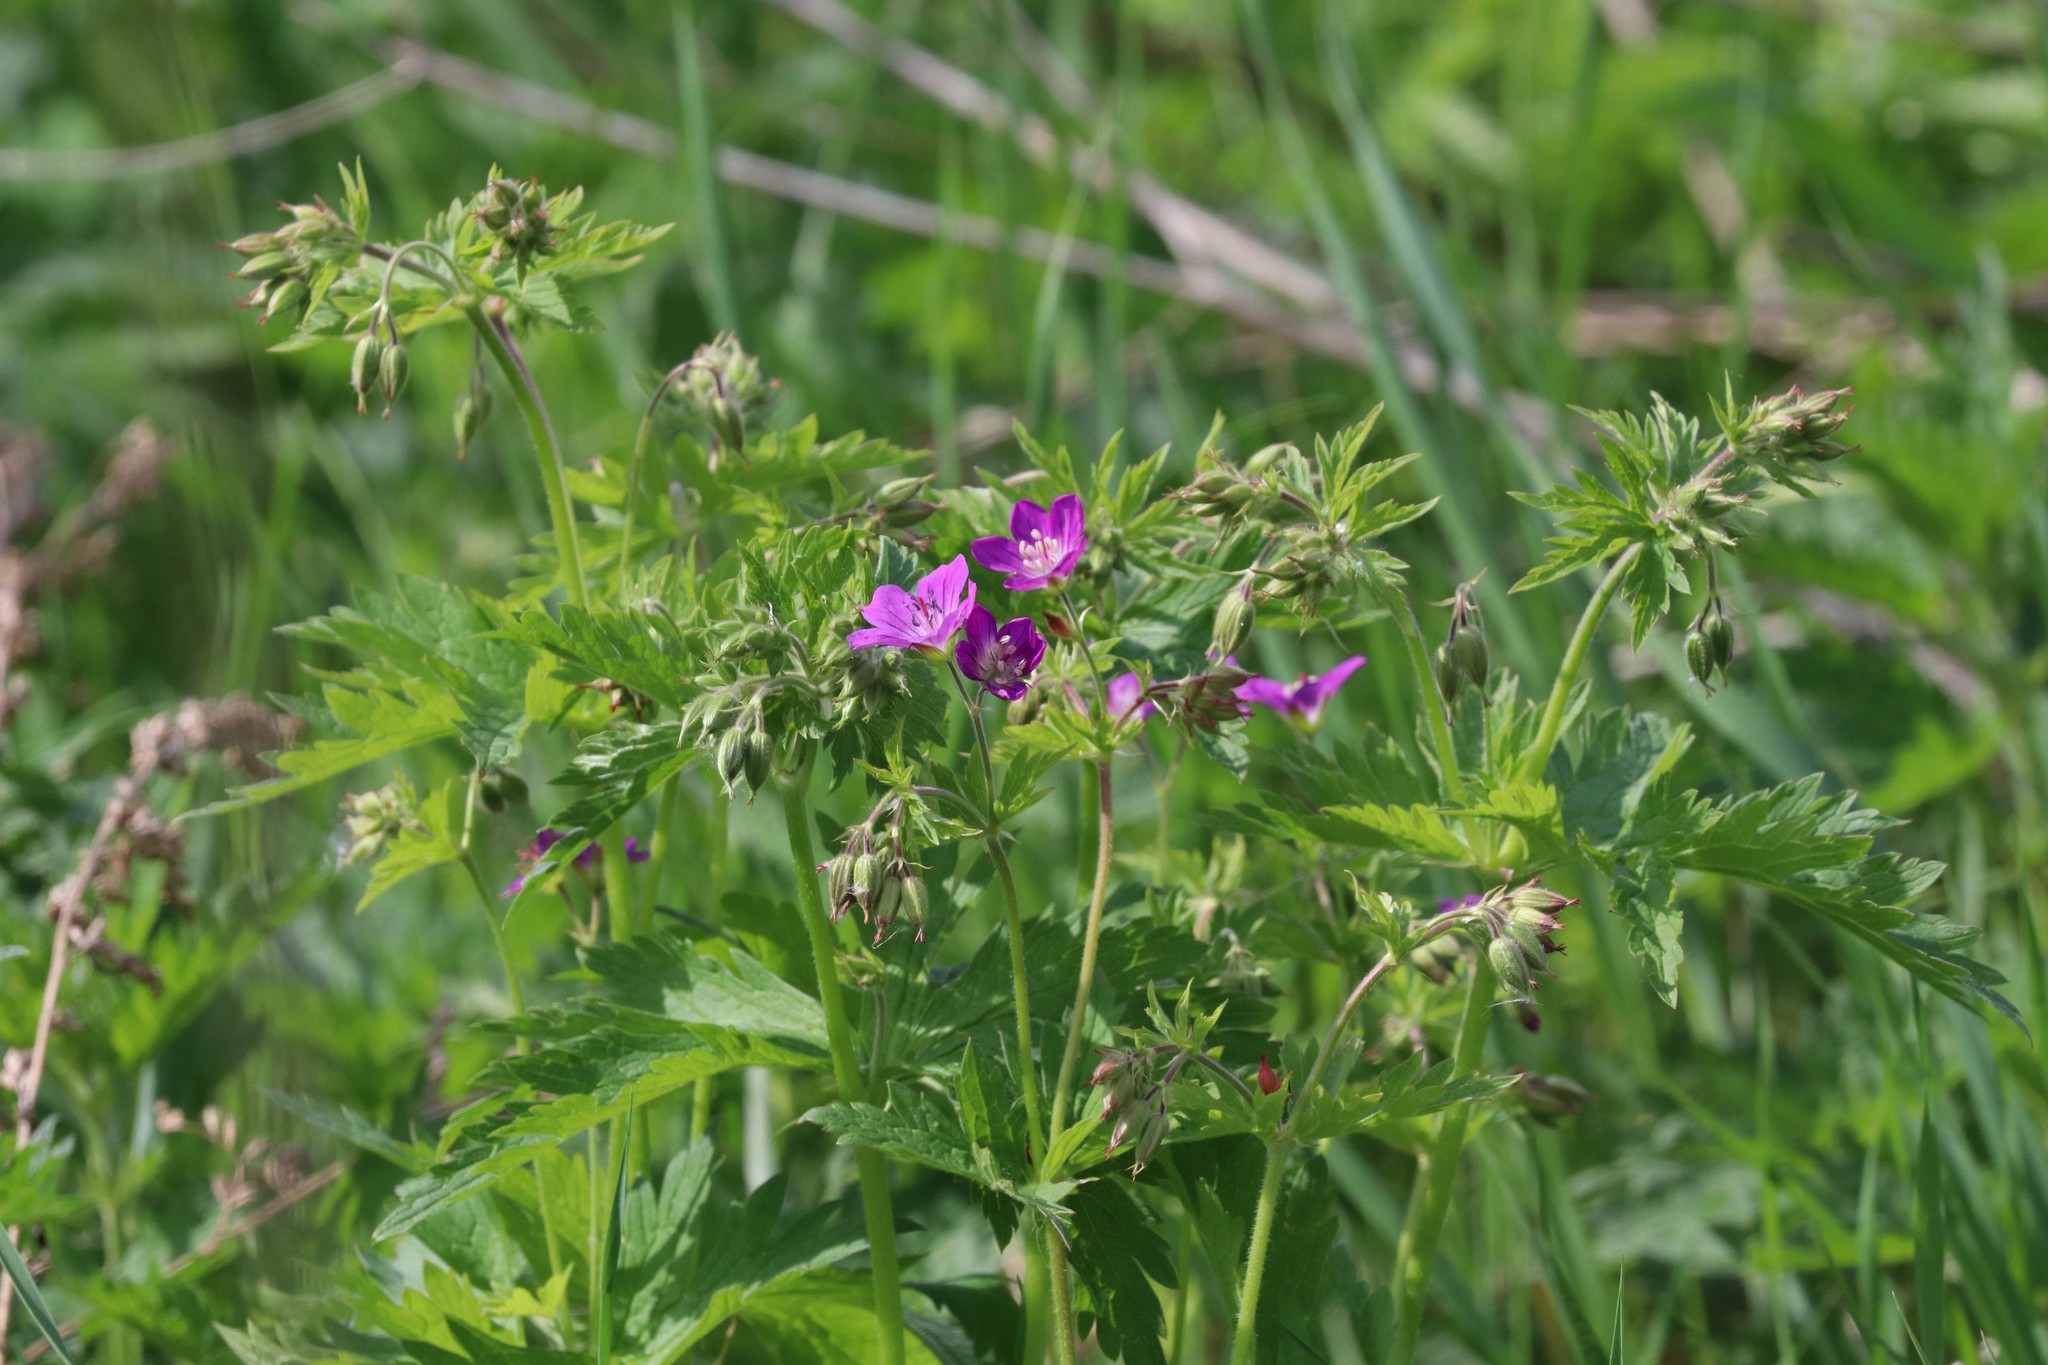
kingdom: Plantae
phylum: Tracheophyta
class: Magnoliopsida
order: Geraniales
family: Geraniaceae
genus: Geranium
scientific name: Geranium sylvaticum
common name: Wood crane's-bill
